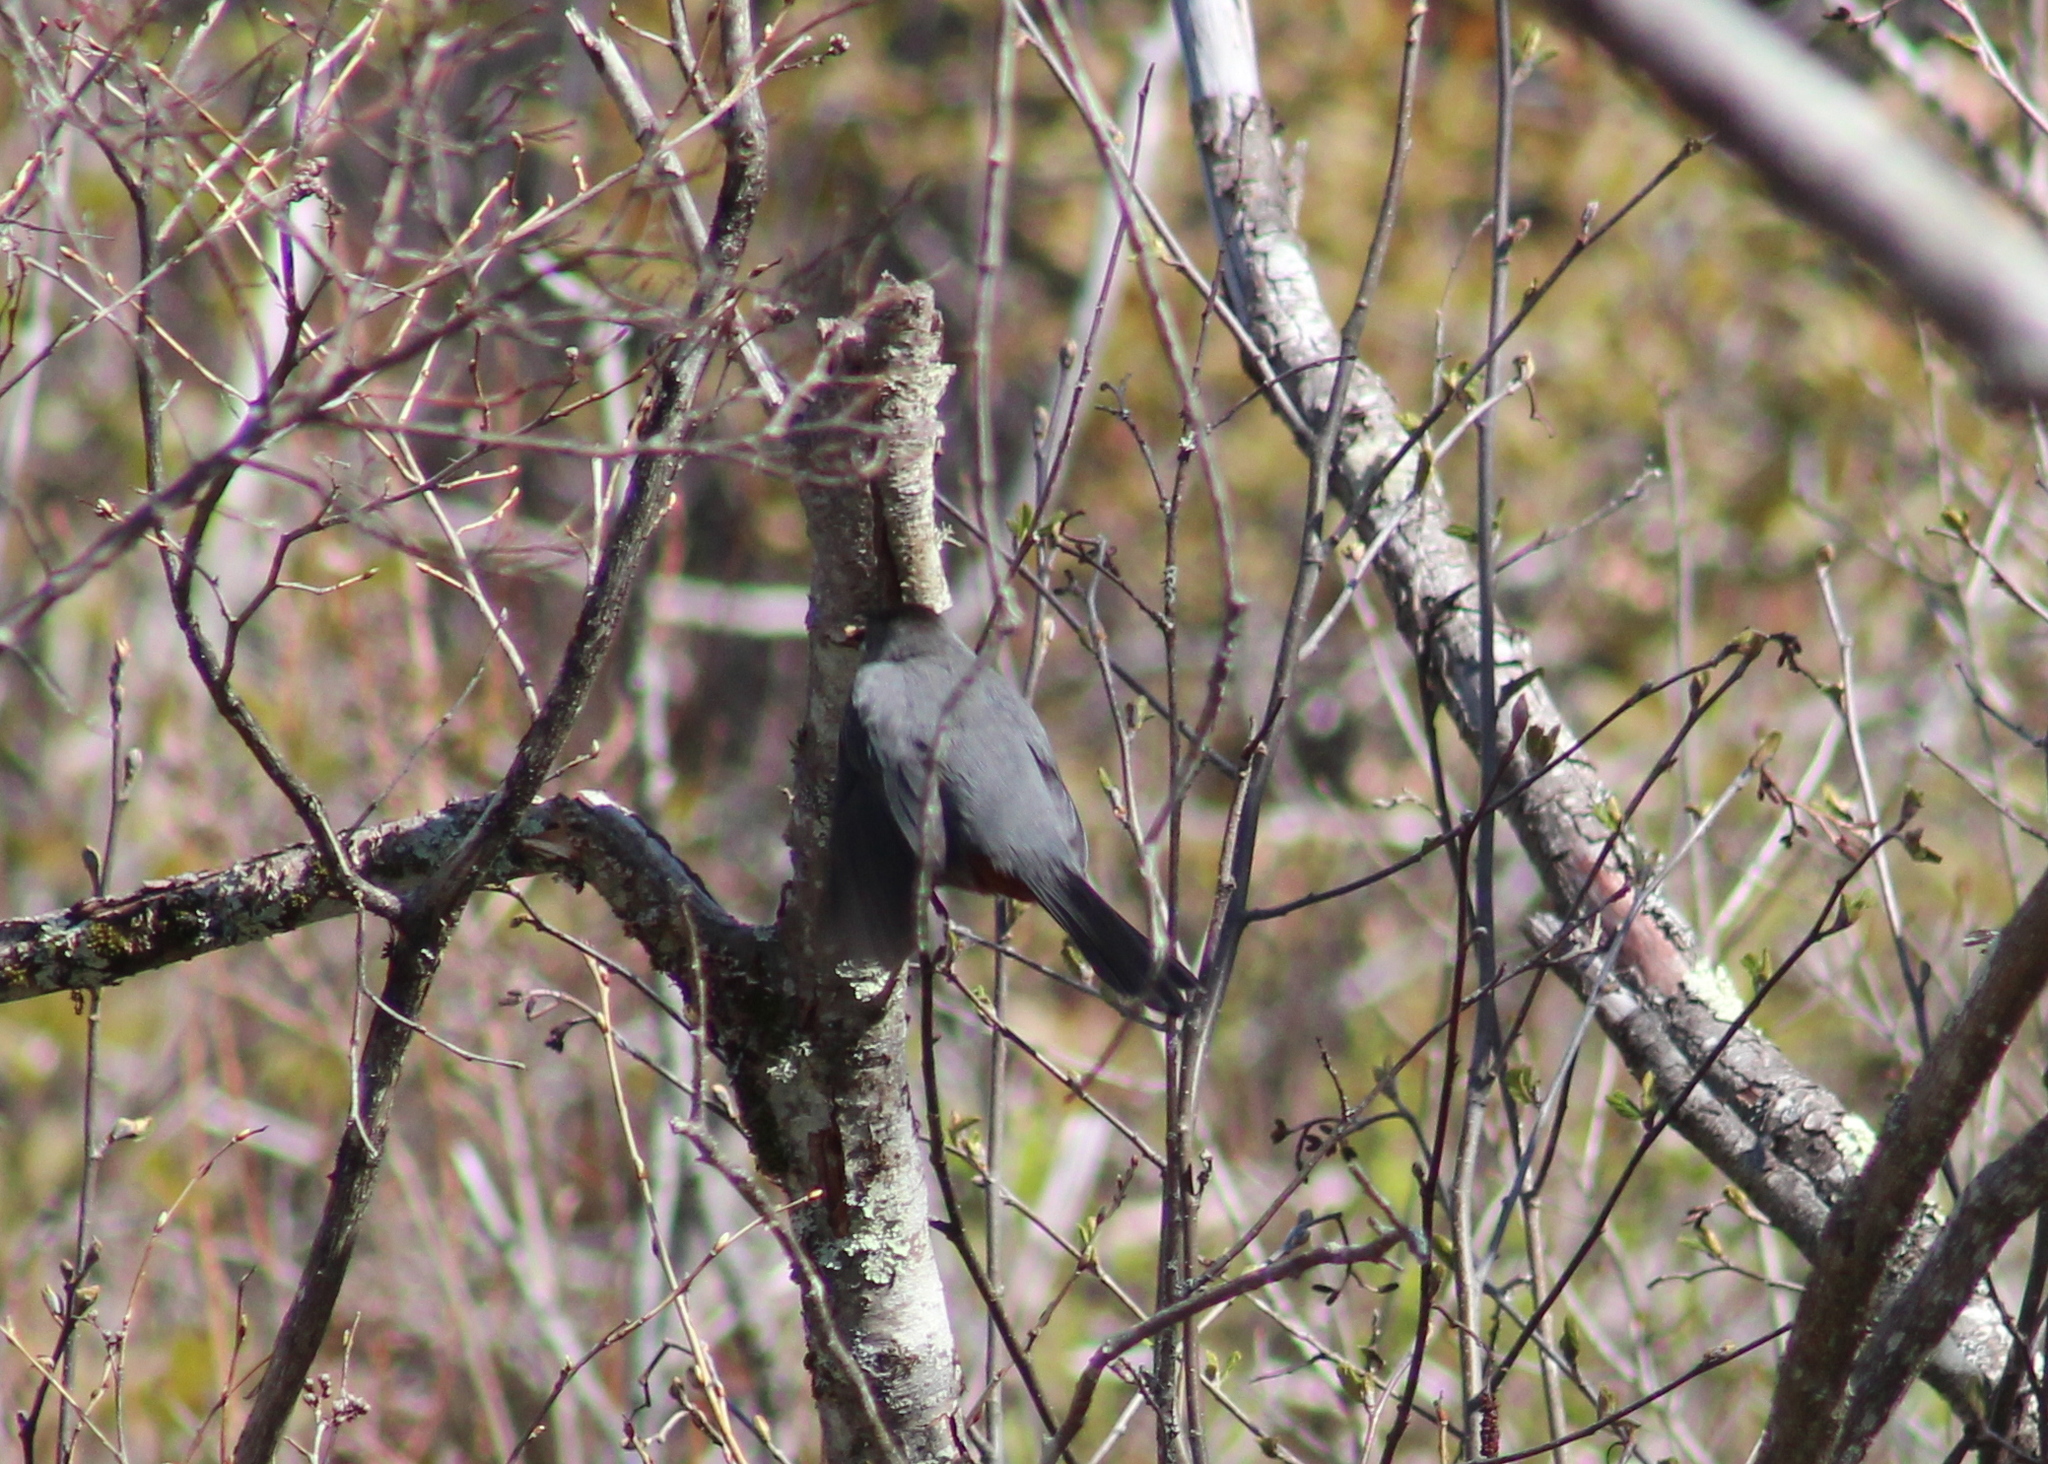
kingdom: Animalia
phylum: Chordata
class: Aves
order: Passeriformes
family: Mimidae
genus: Dumetella
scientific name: Dumetella carolinensis
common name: Gray catbird
